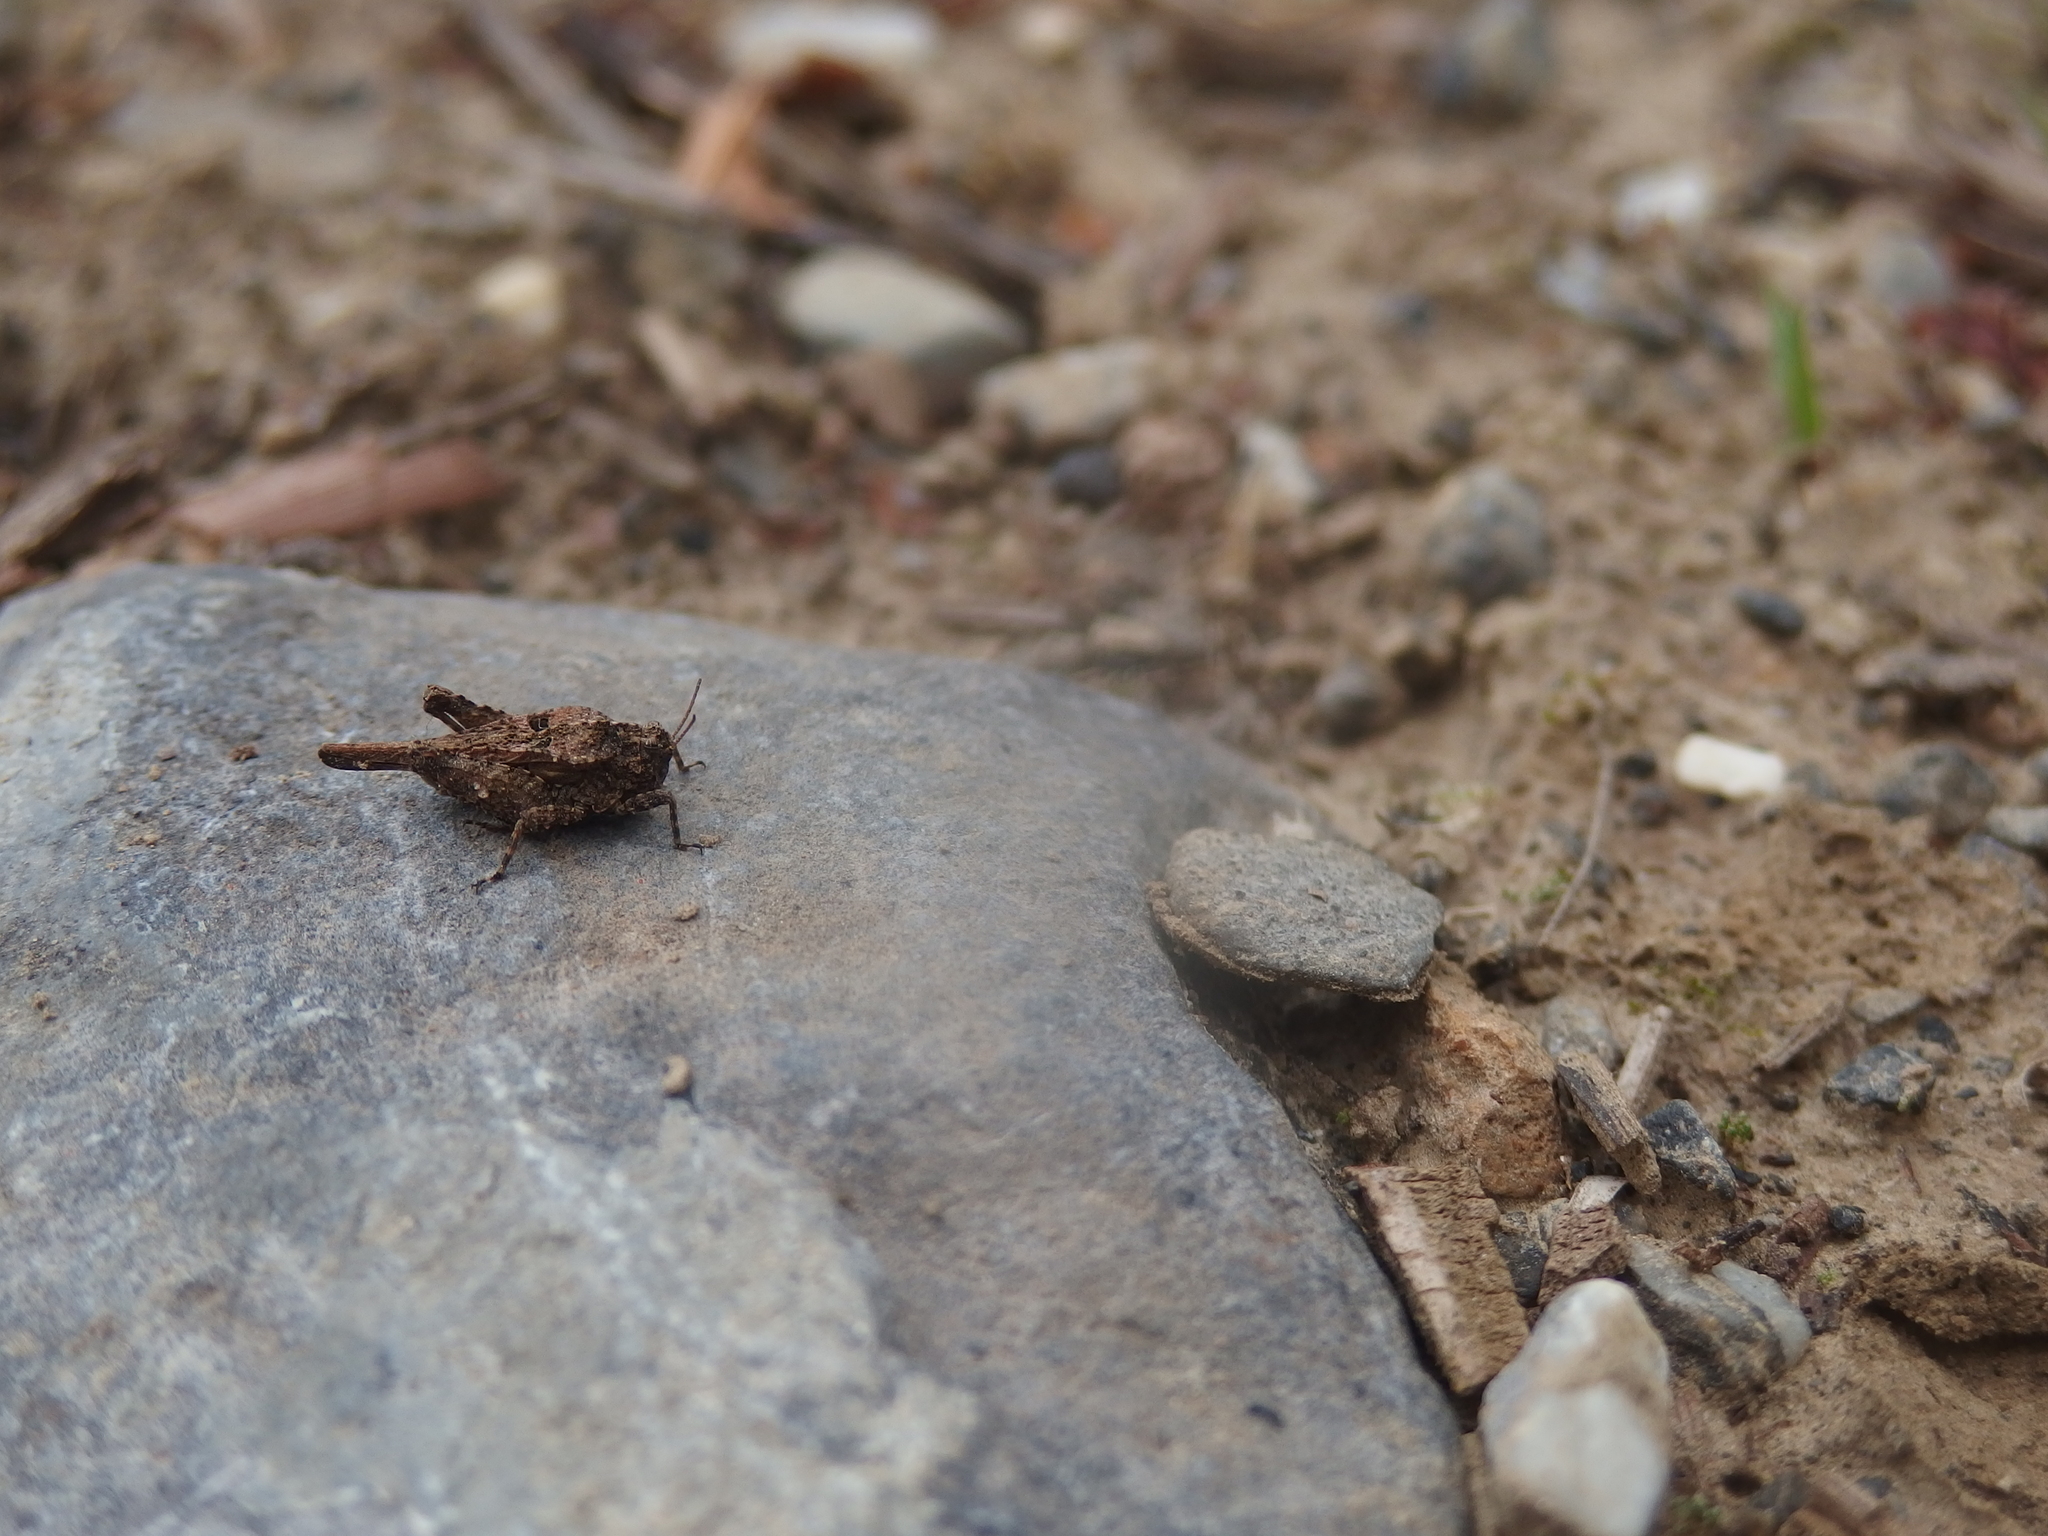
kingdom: Animalia
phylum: Arthropoda
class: Insecta
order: Orthoptera
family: Tetrigidae
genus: Tetrix
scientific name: Tetrix depressa
